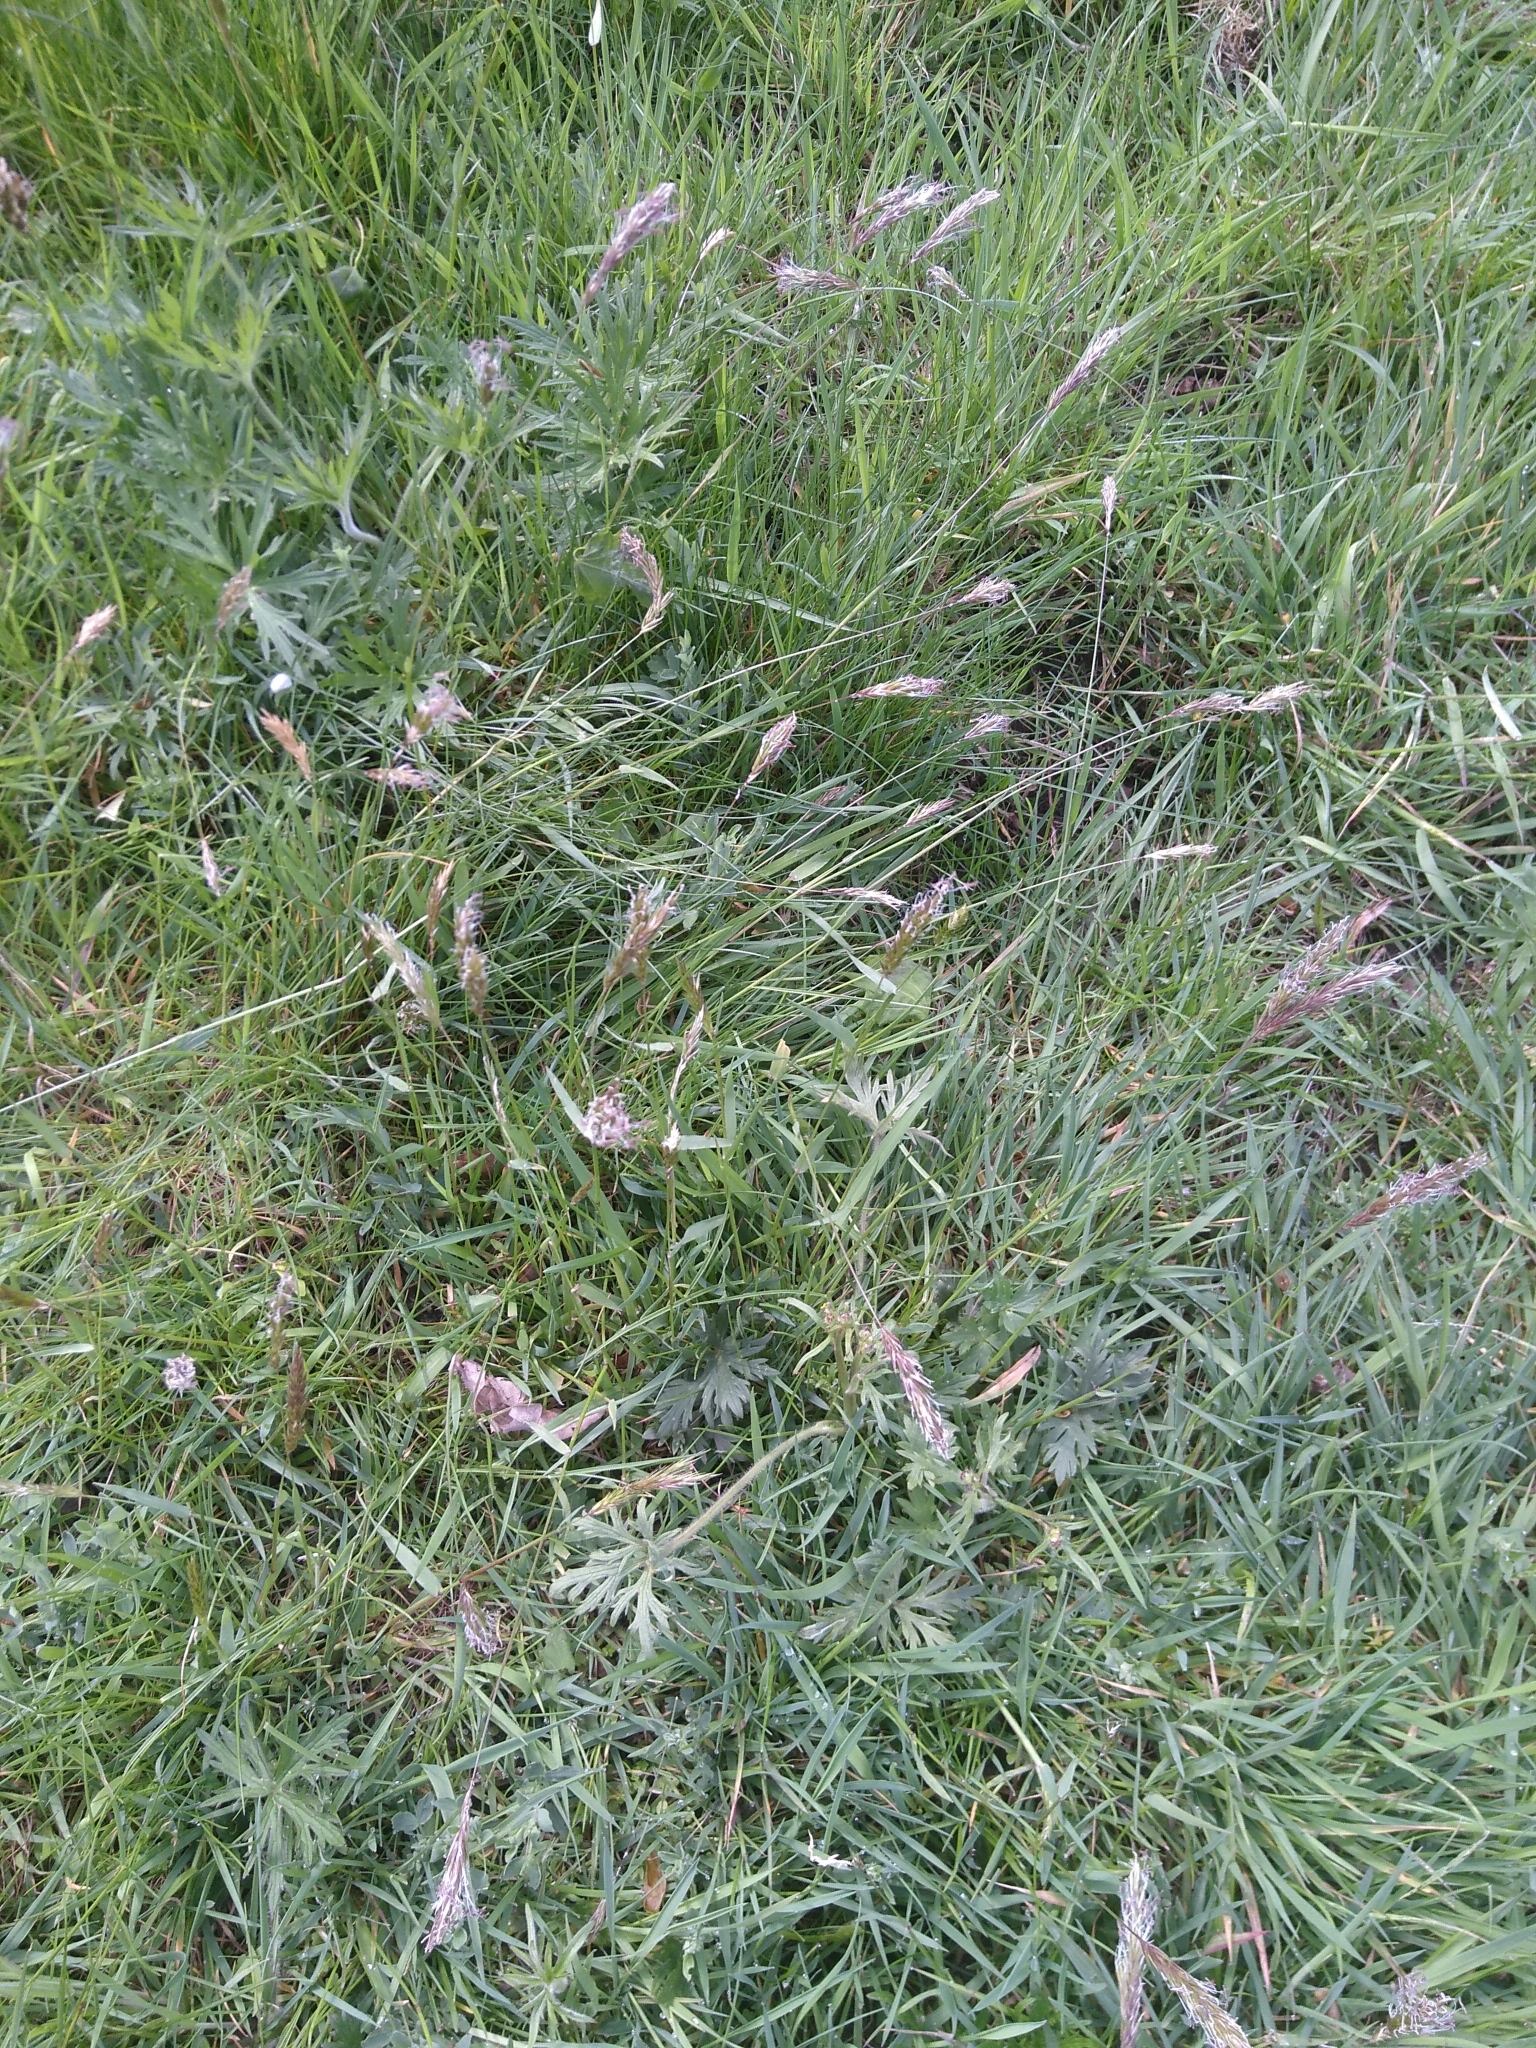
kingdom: Plantae
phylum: Tracheophyta
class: Liliopsida
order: Poales
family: Poaceae
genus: Anthoxanthum
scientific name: Anthoxanthum odoratum
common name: Sweet vernalgrass
